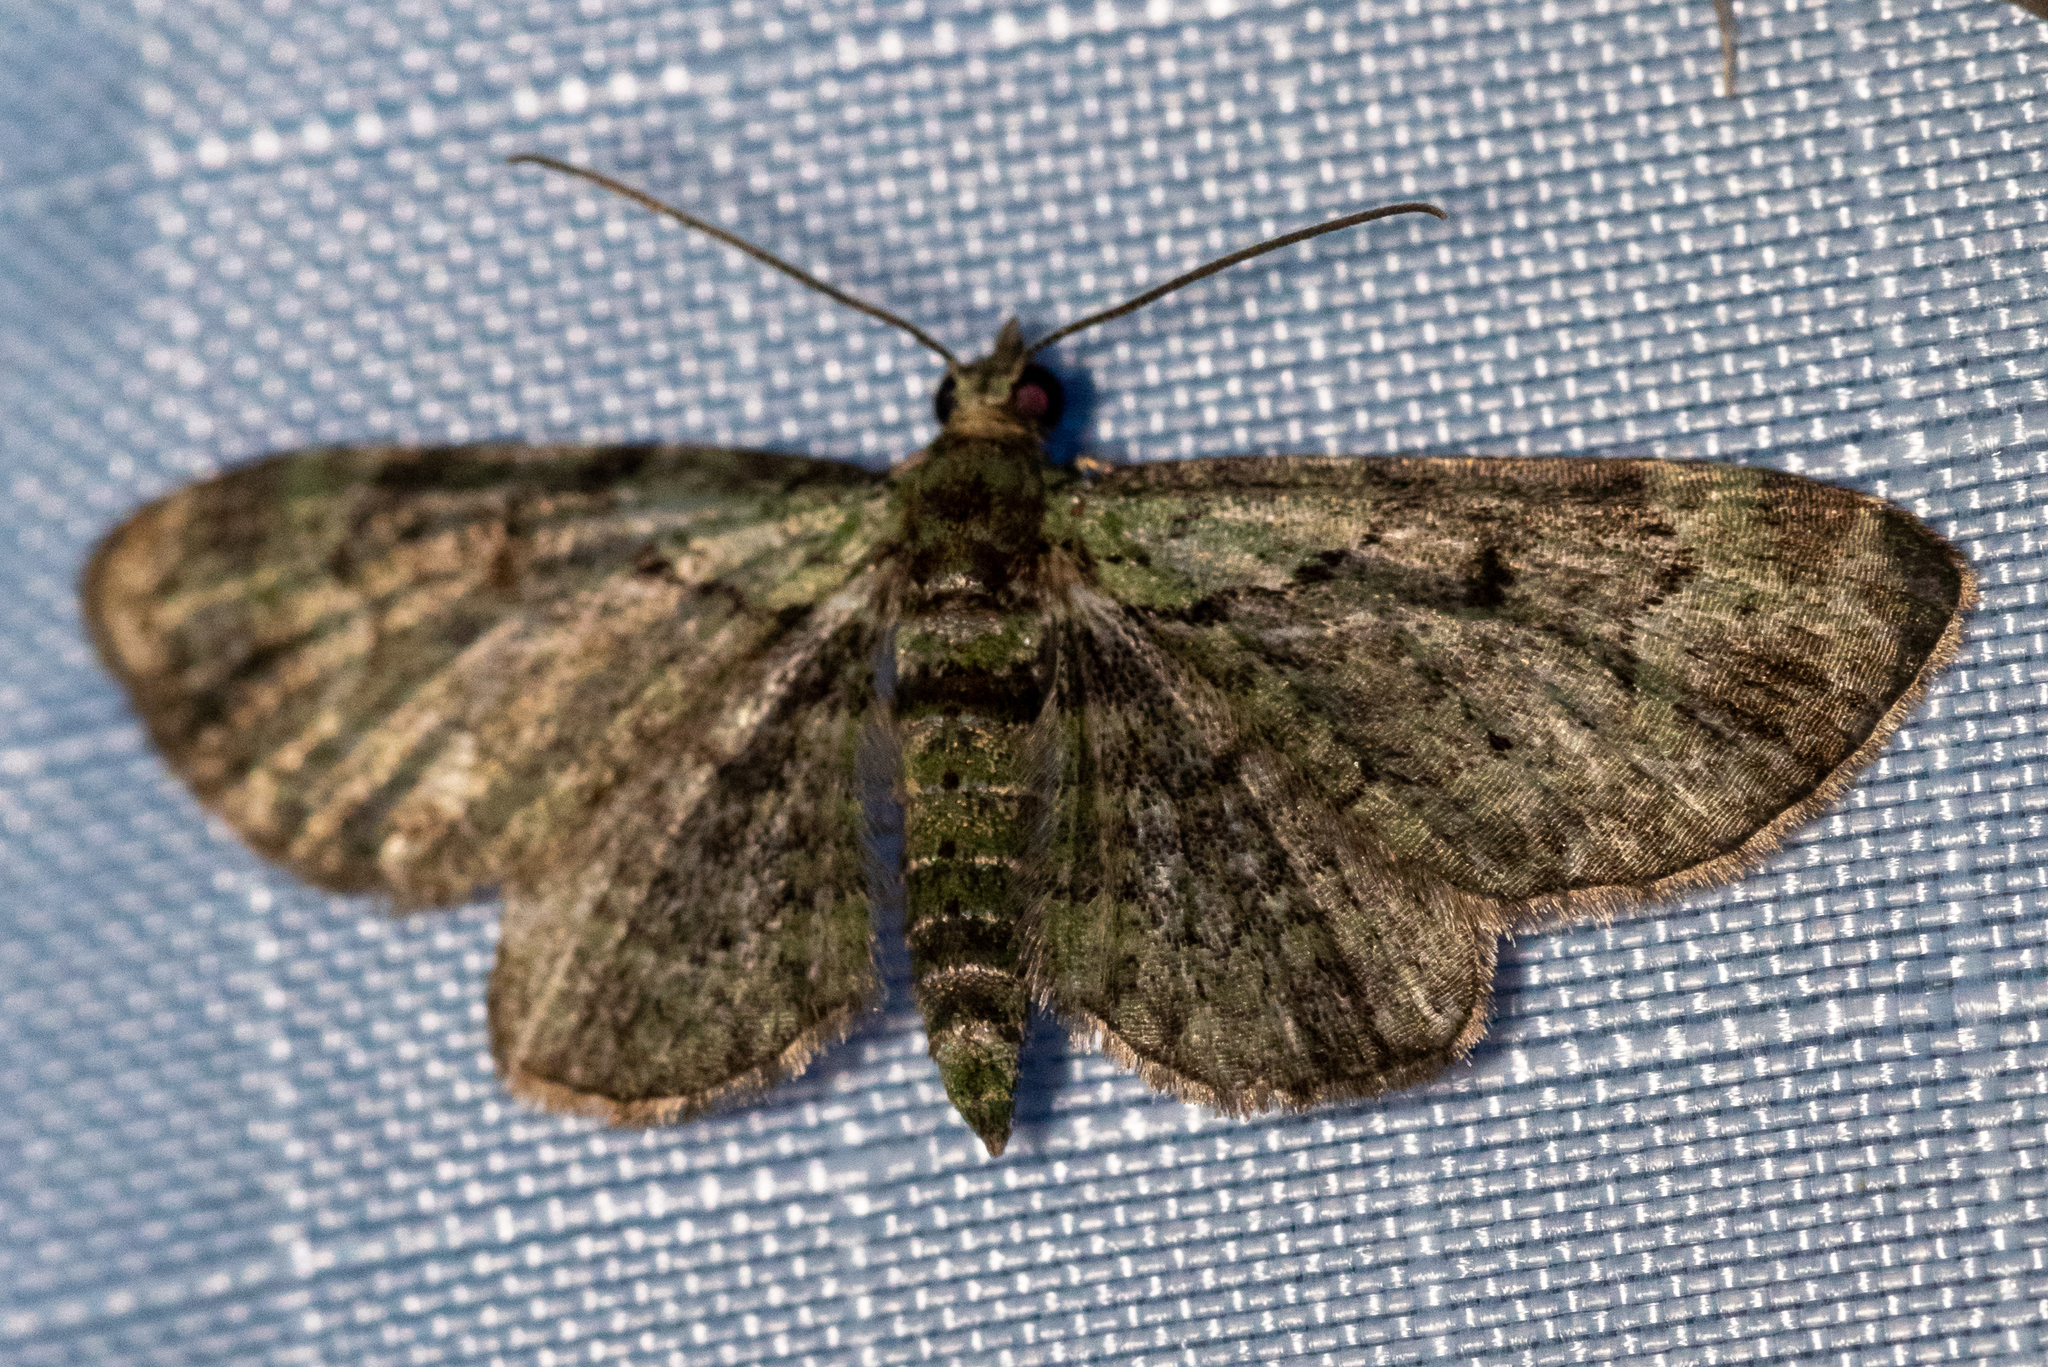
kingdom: Animalia
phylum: Arthropoda
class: Insecta
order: Lepidoptera
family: Geometridae
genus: Pasiphila
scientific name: Pasiphila rectangulata
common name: Green pug
